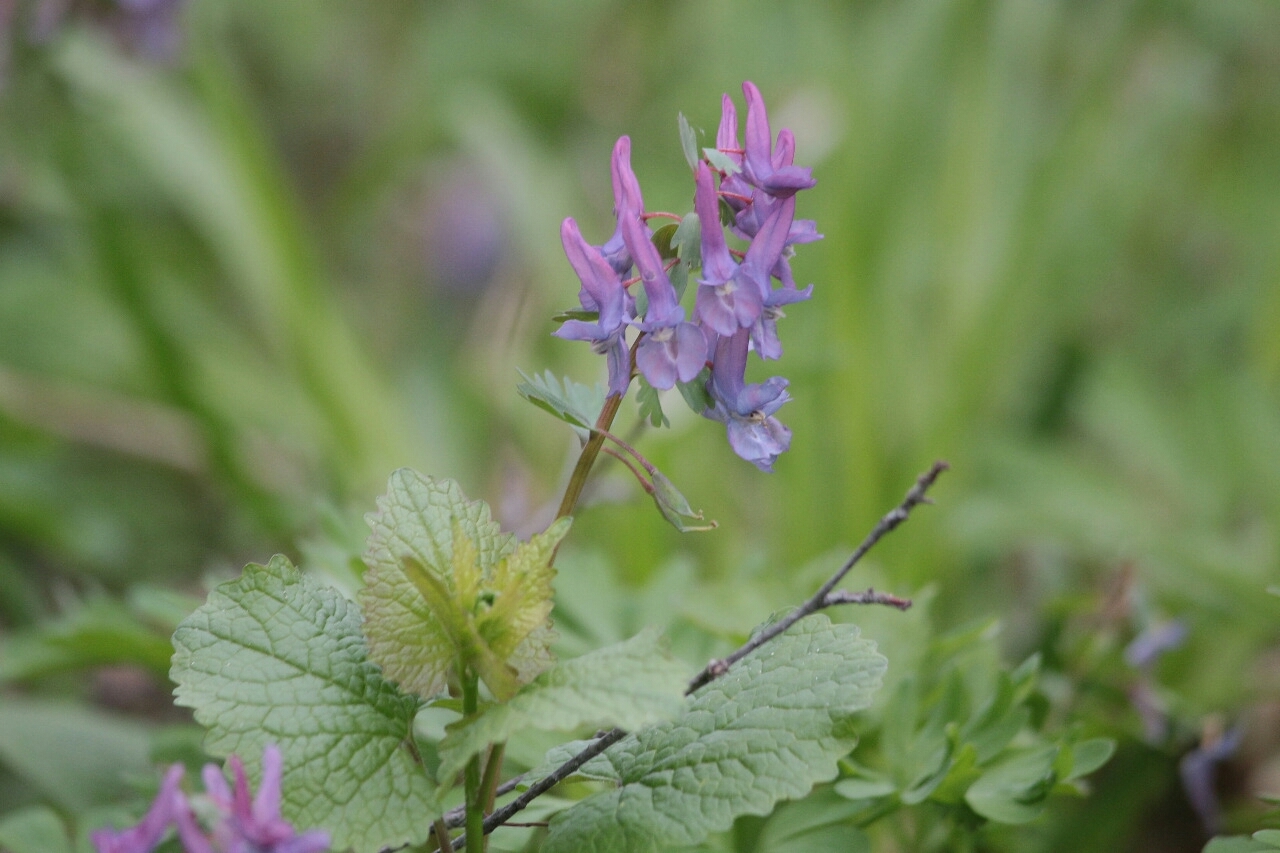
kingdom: Plantae
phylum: Tracheophyta
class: Magnoliopsida
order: Ranunculales
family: Papaveraceae
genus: Corydalis
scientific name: Corydalis solida
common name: Bird-in-a-bush
